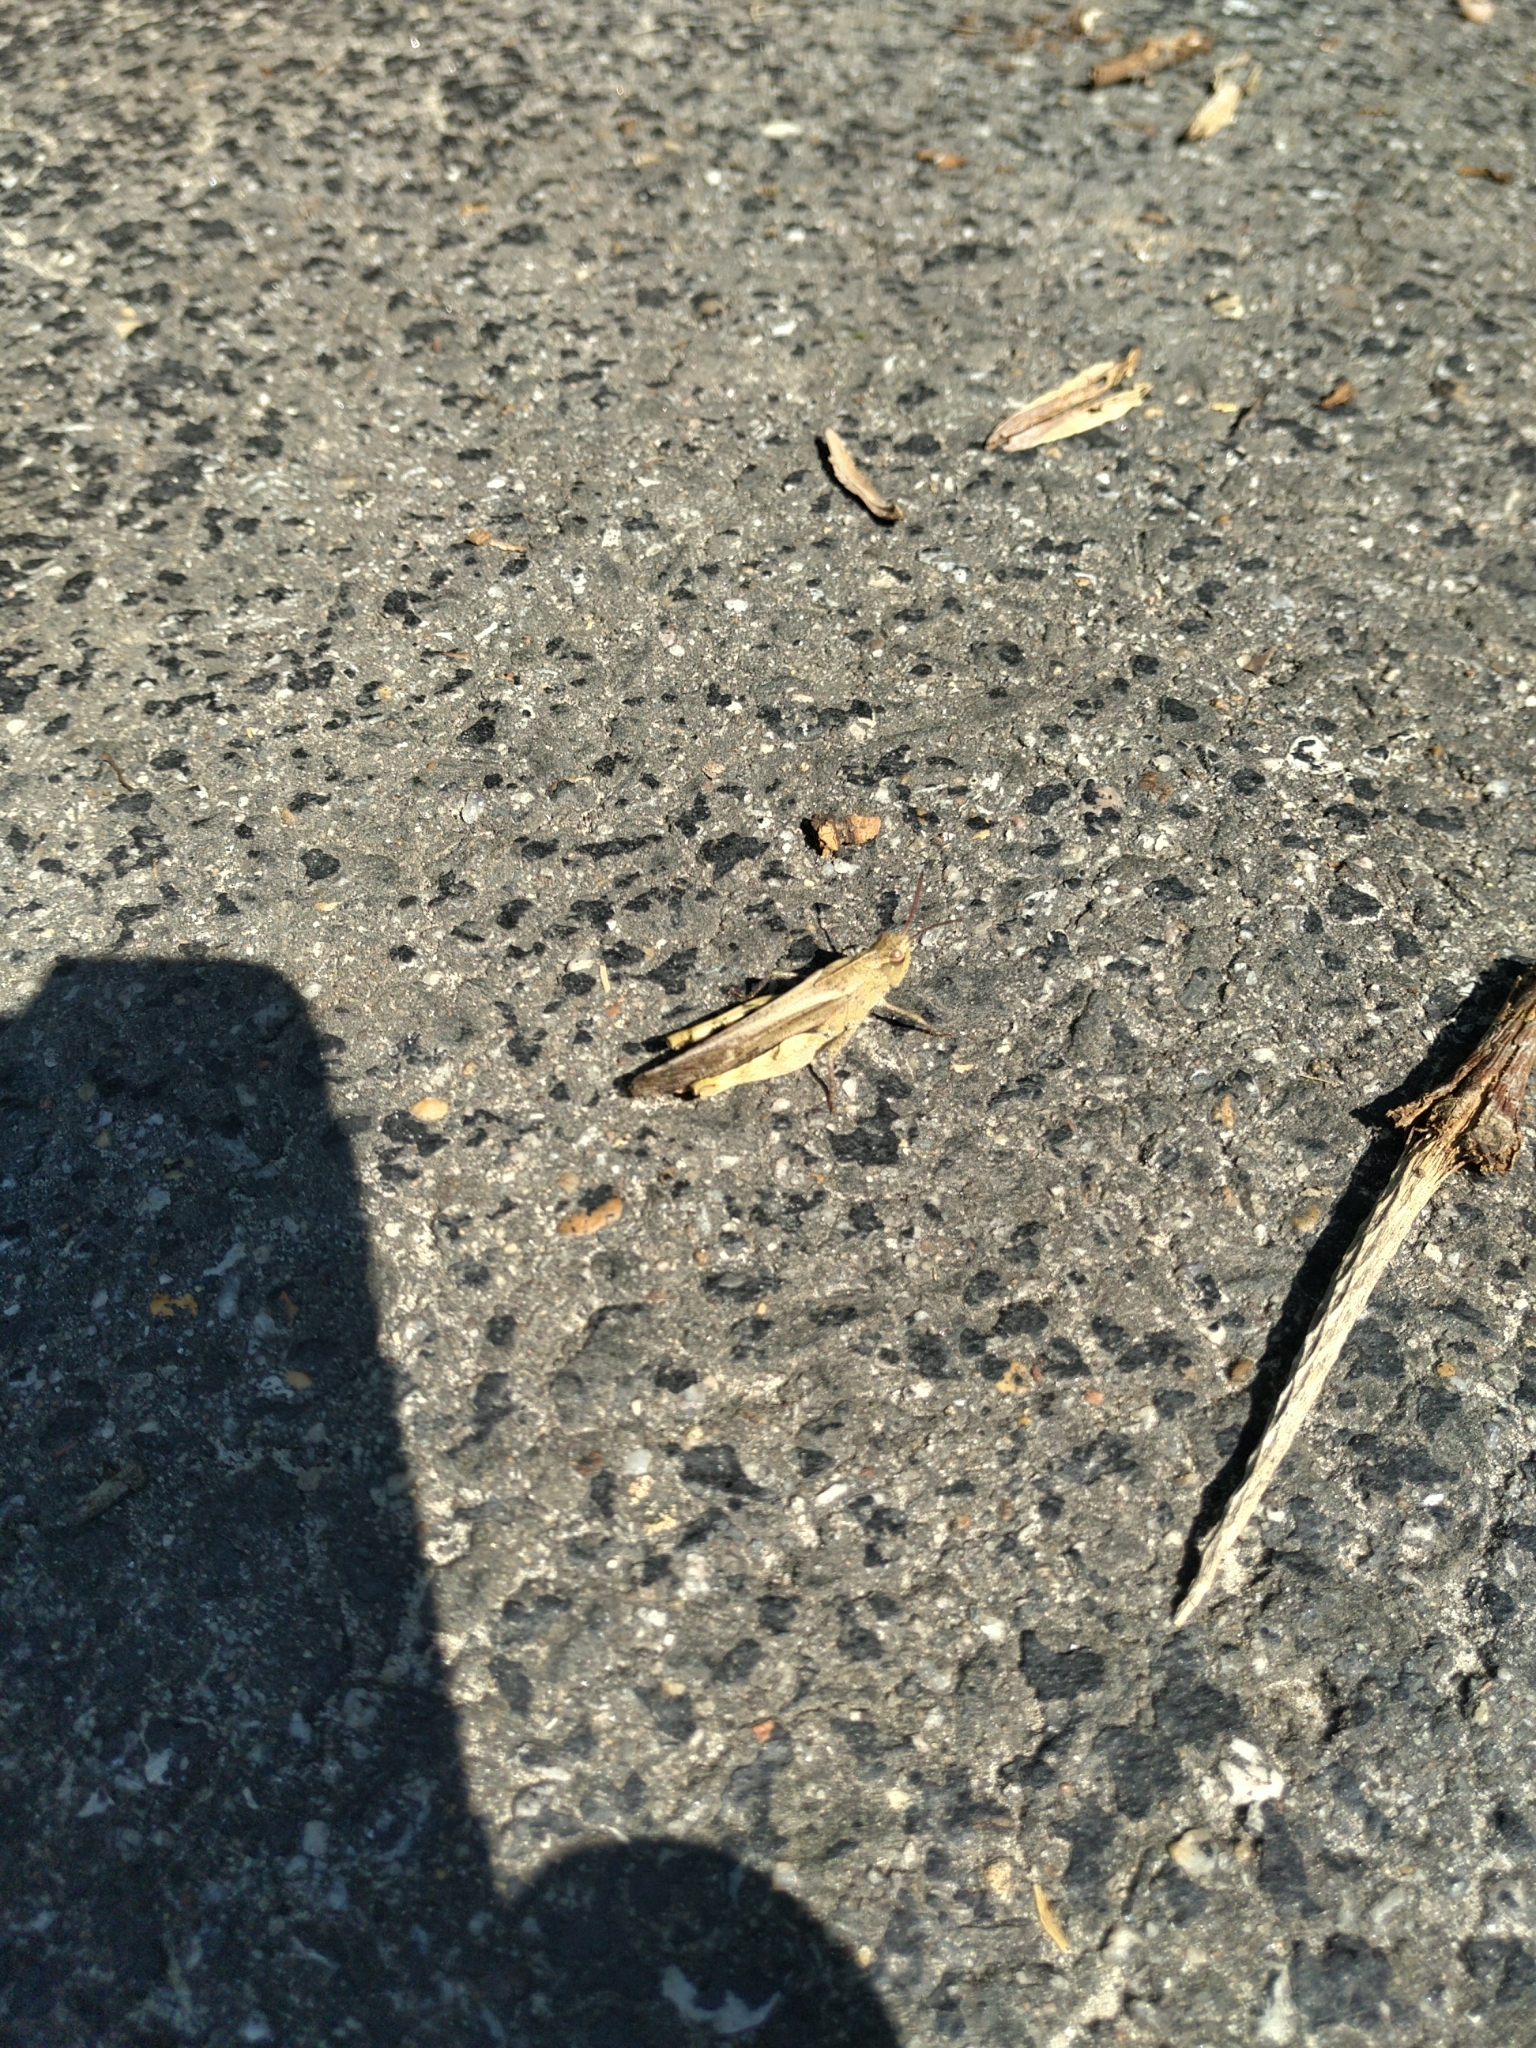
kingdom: Animalia
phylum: Arthropoda
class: Insecta
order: Orthoptera
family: Acrididae
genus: Chortophaga
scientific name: Chortophaga viridifasciata
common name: Green-striped grasshopper
